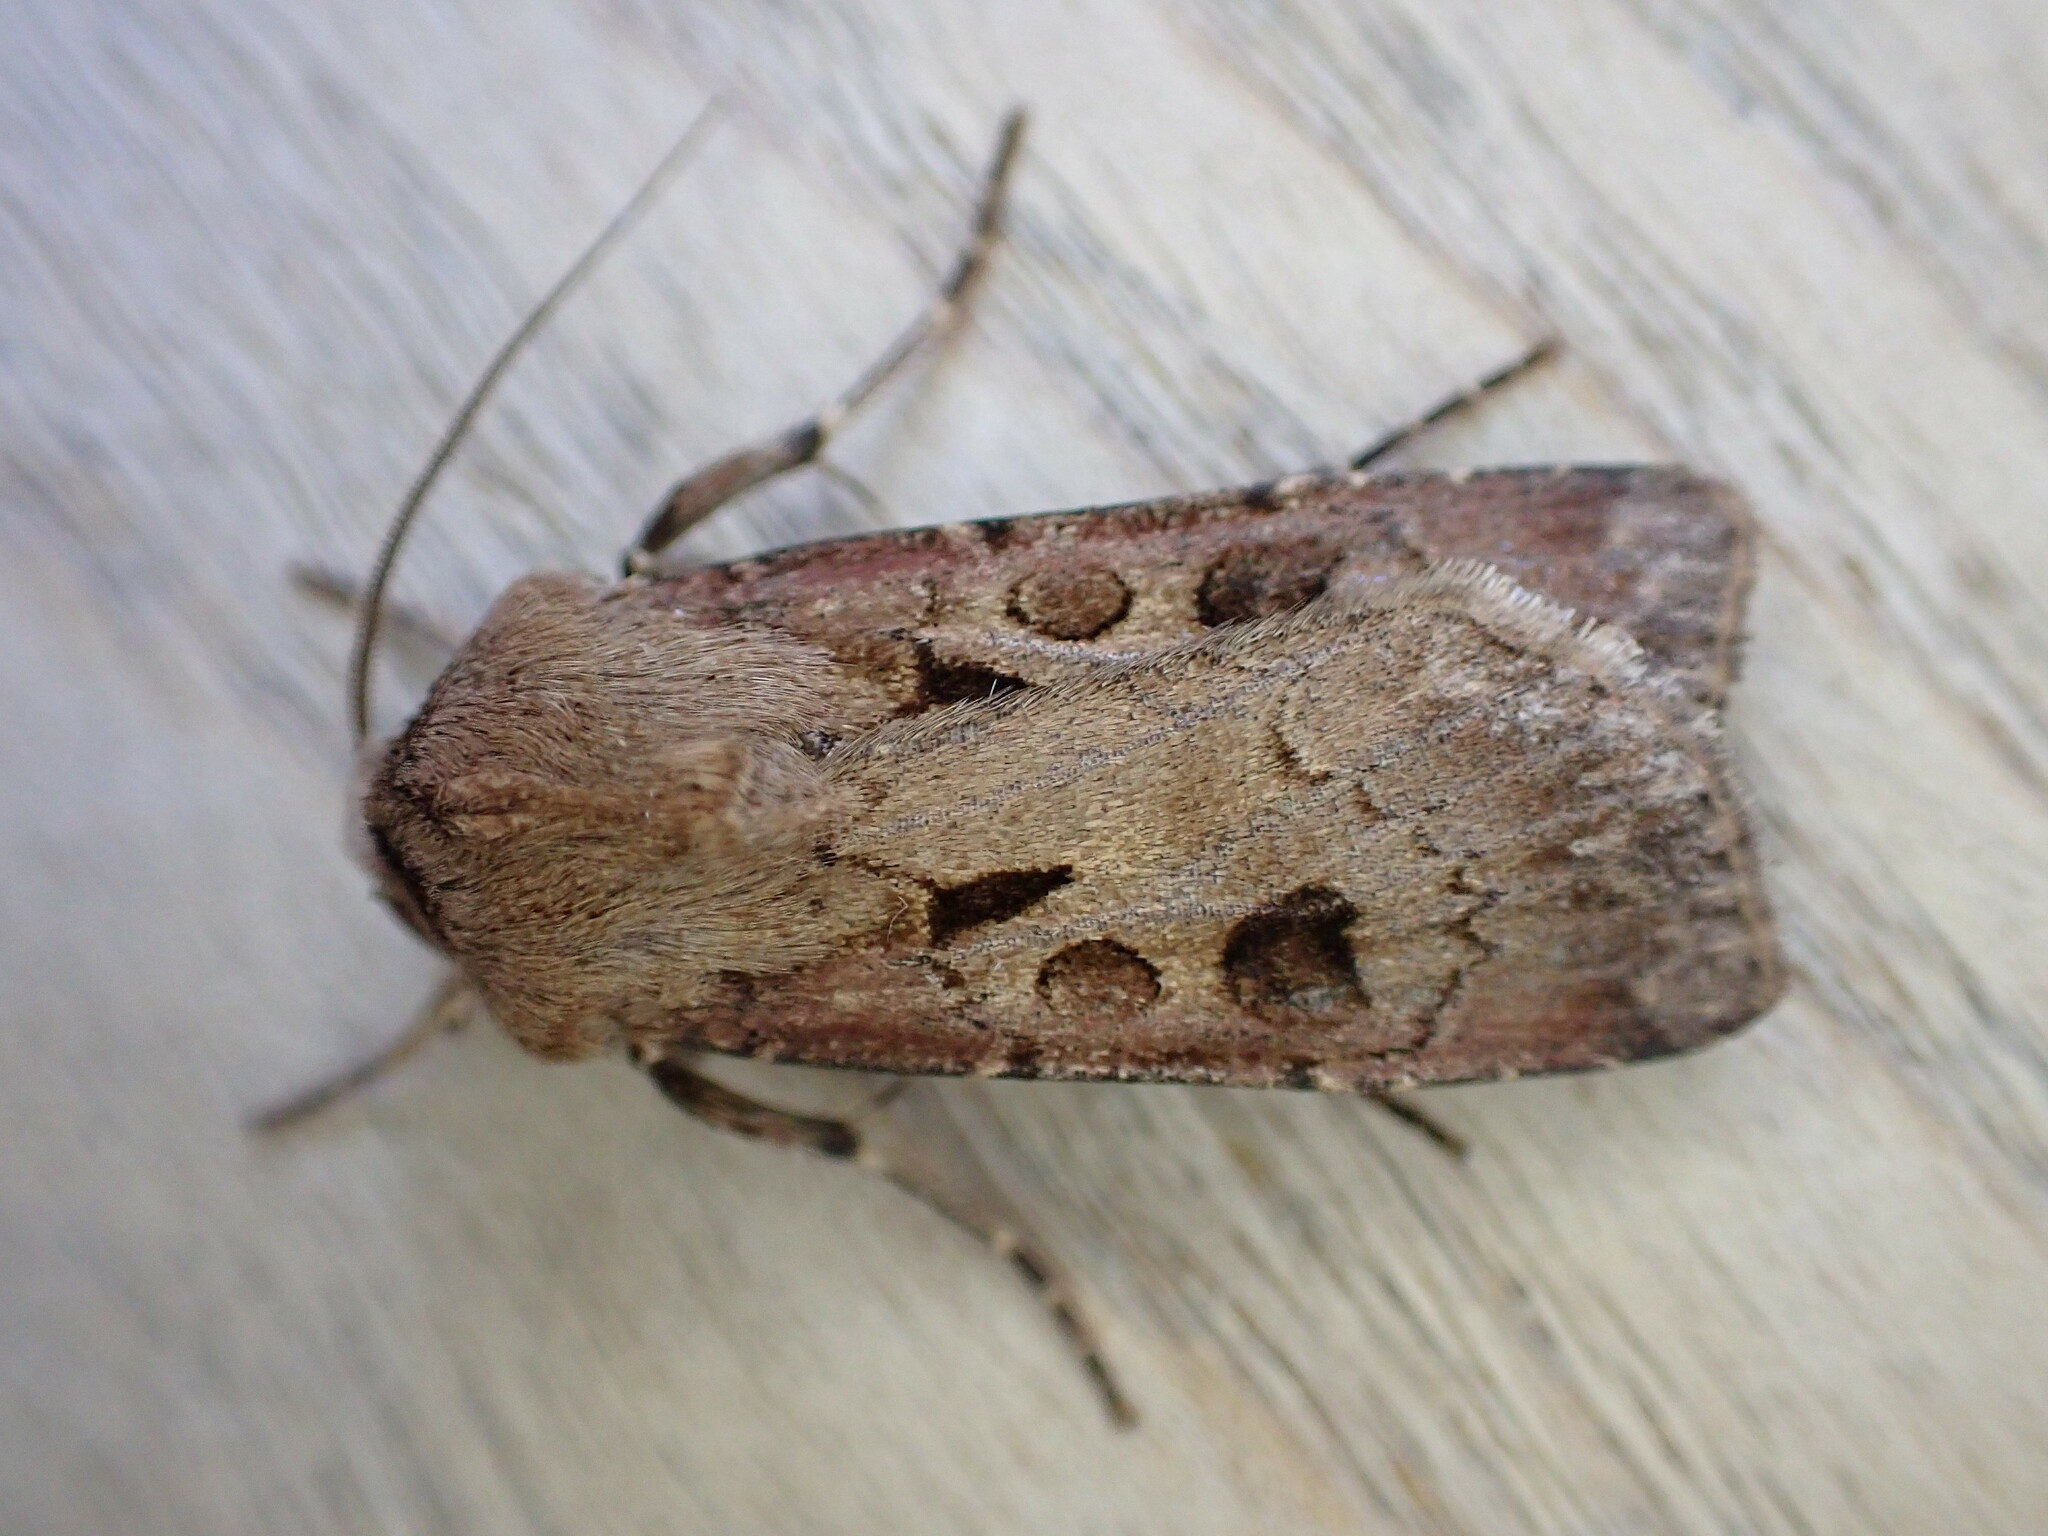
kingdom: Animalia
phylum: Arthropoda
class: Insecta
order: Lepidoptera
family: Noctuidae
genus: Agrotis
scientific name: Agrotis exclamationis
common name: Heart and dart
